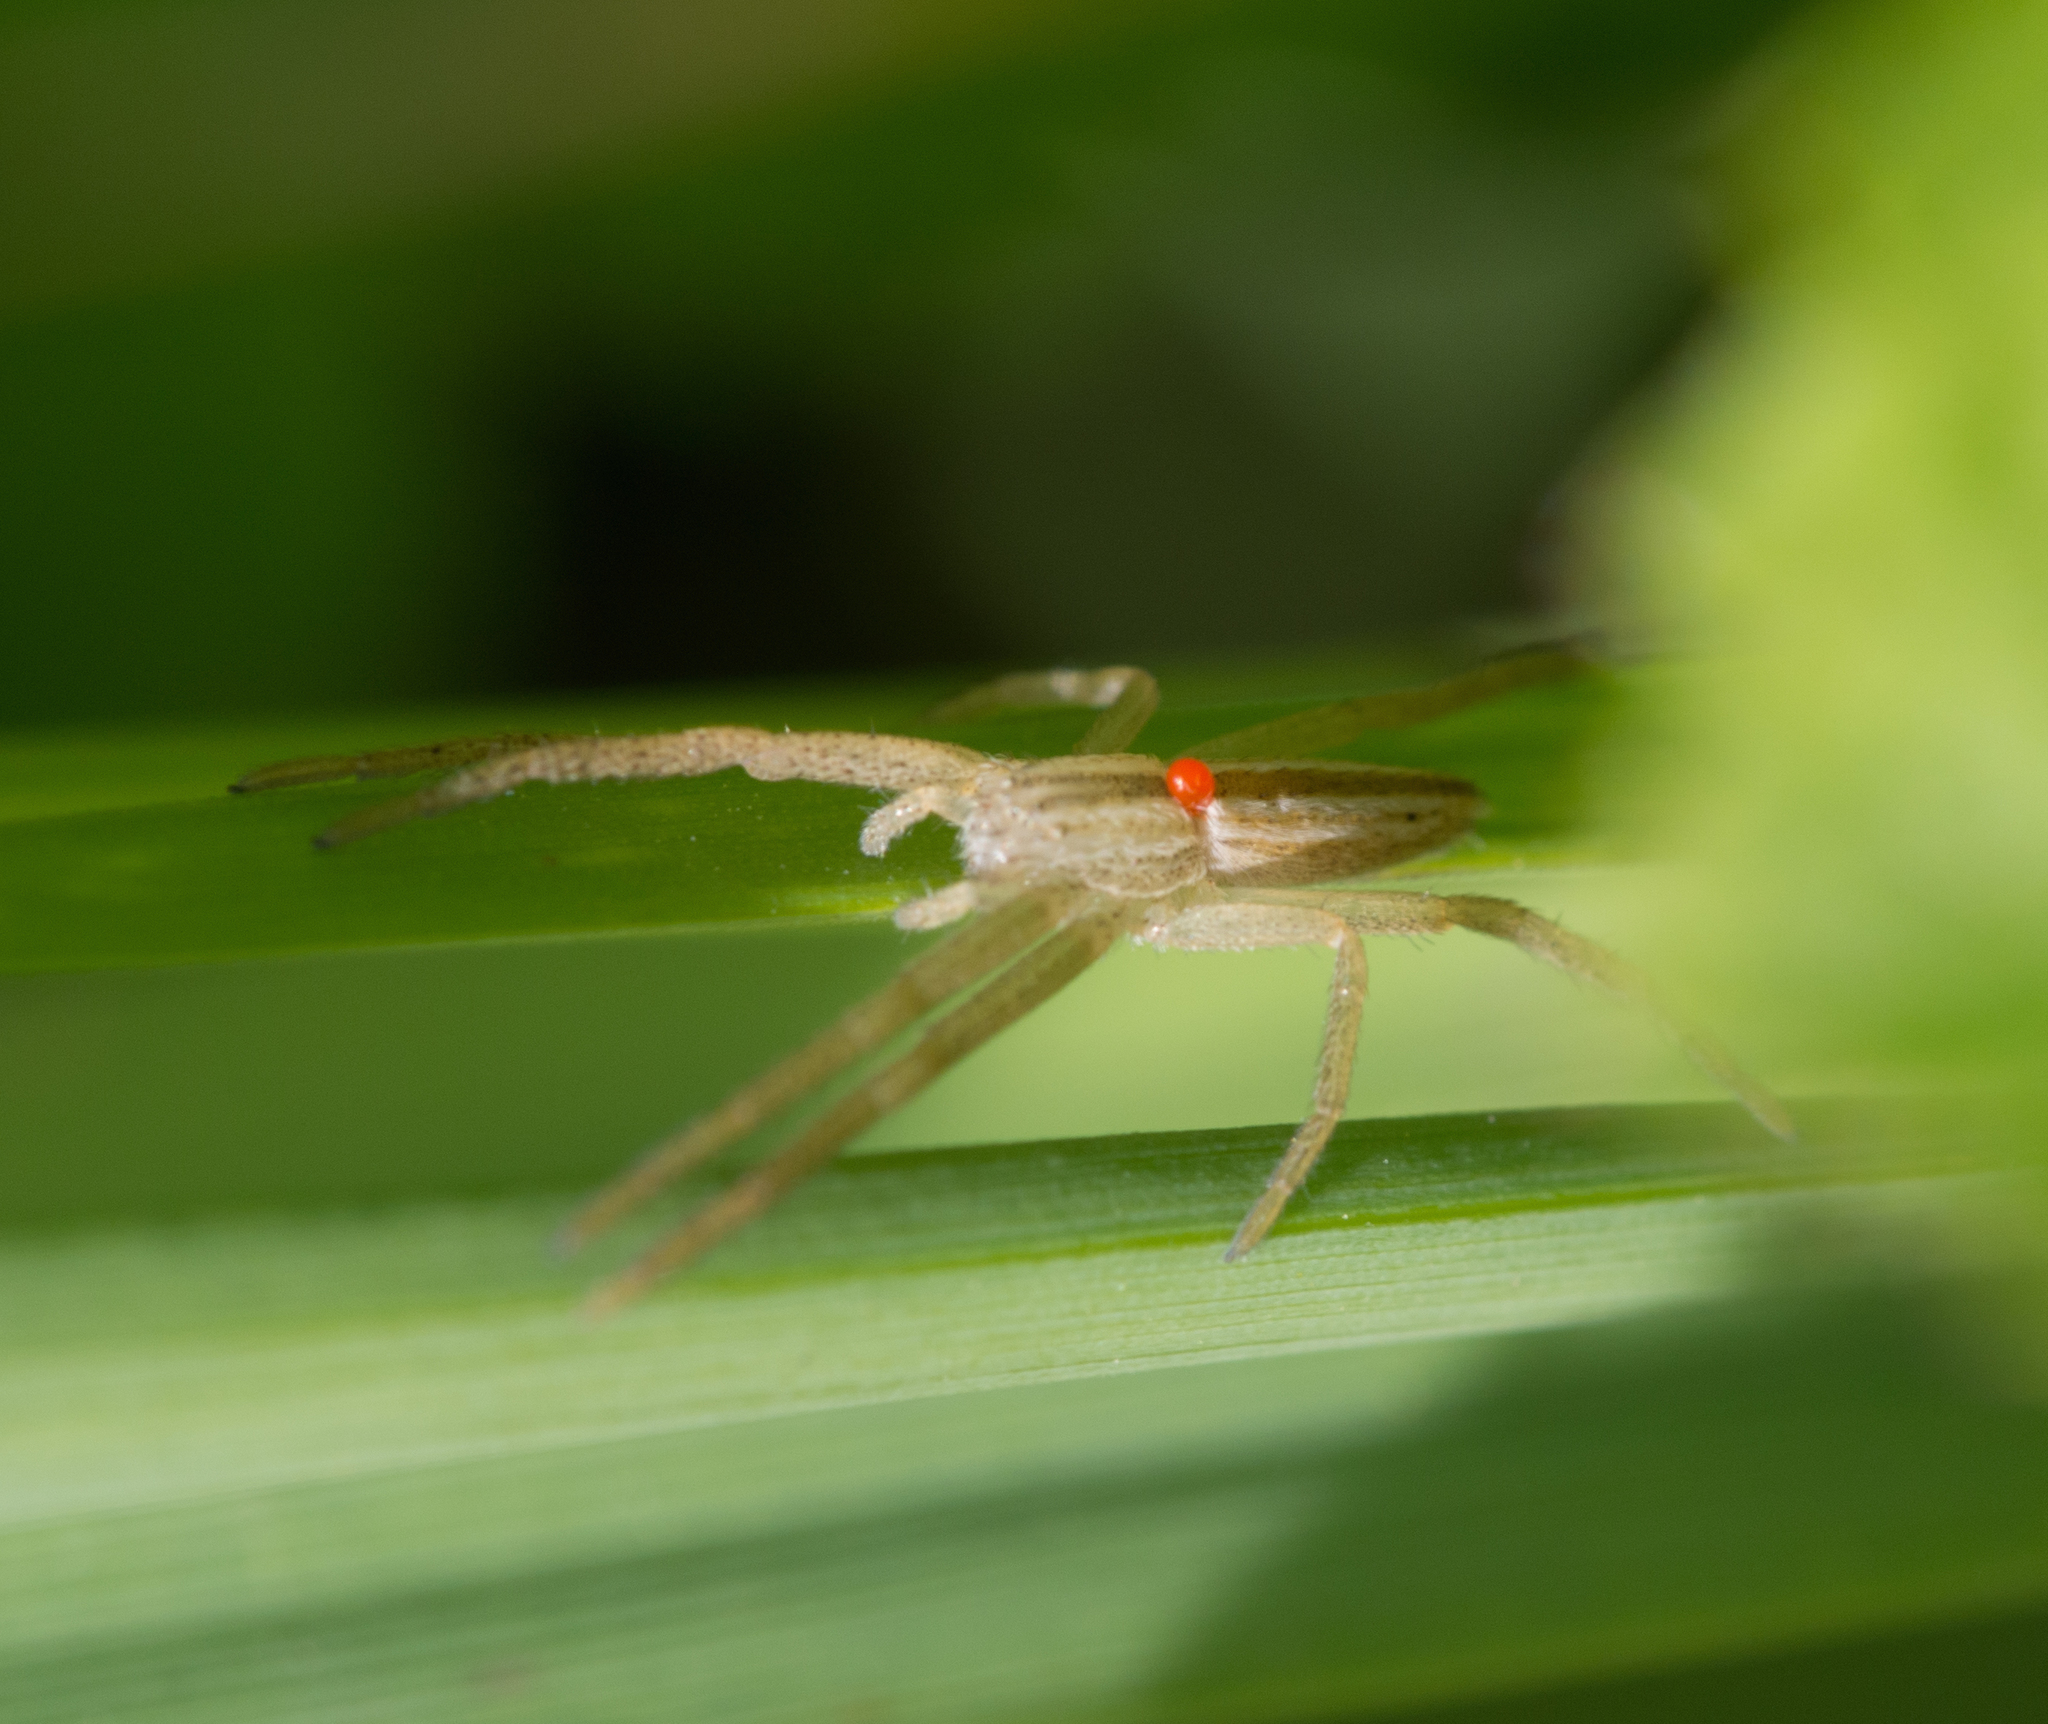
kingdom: Animalia
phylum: Arthropoda
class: Arachnida
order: Araneae
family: Philodromidae
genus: Tibellus
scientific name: Tibellus
